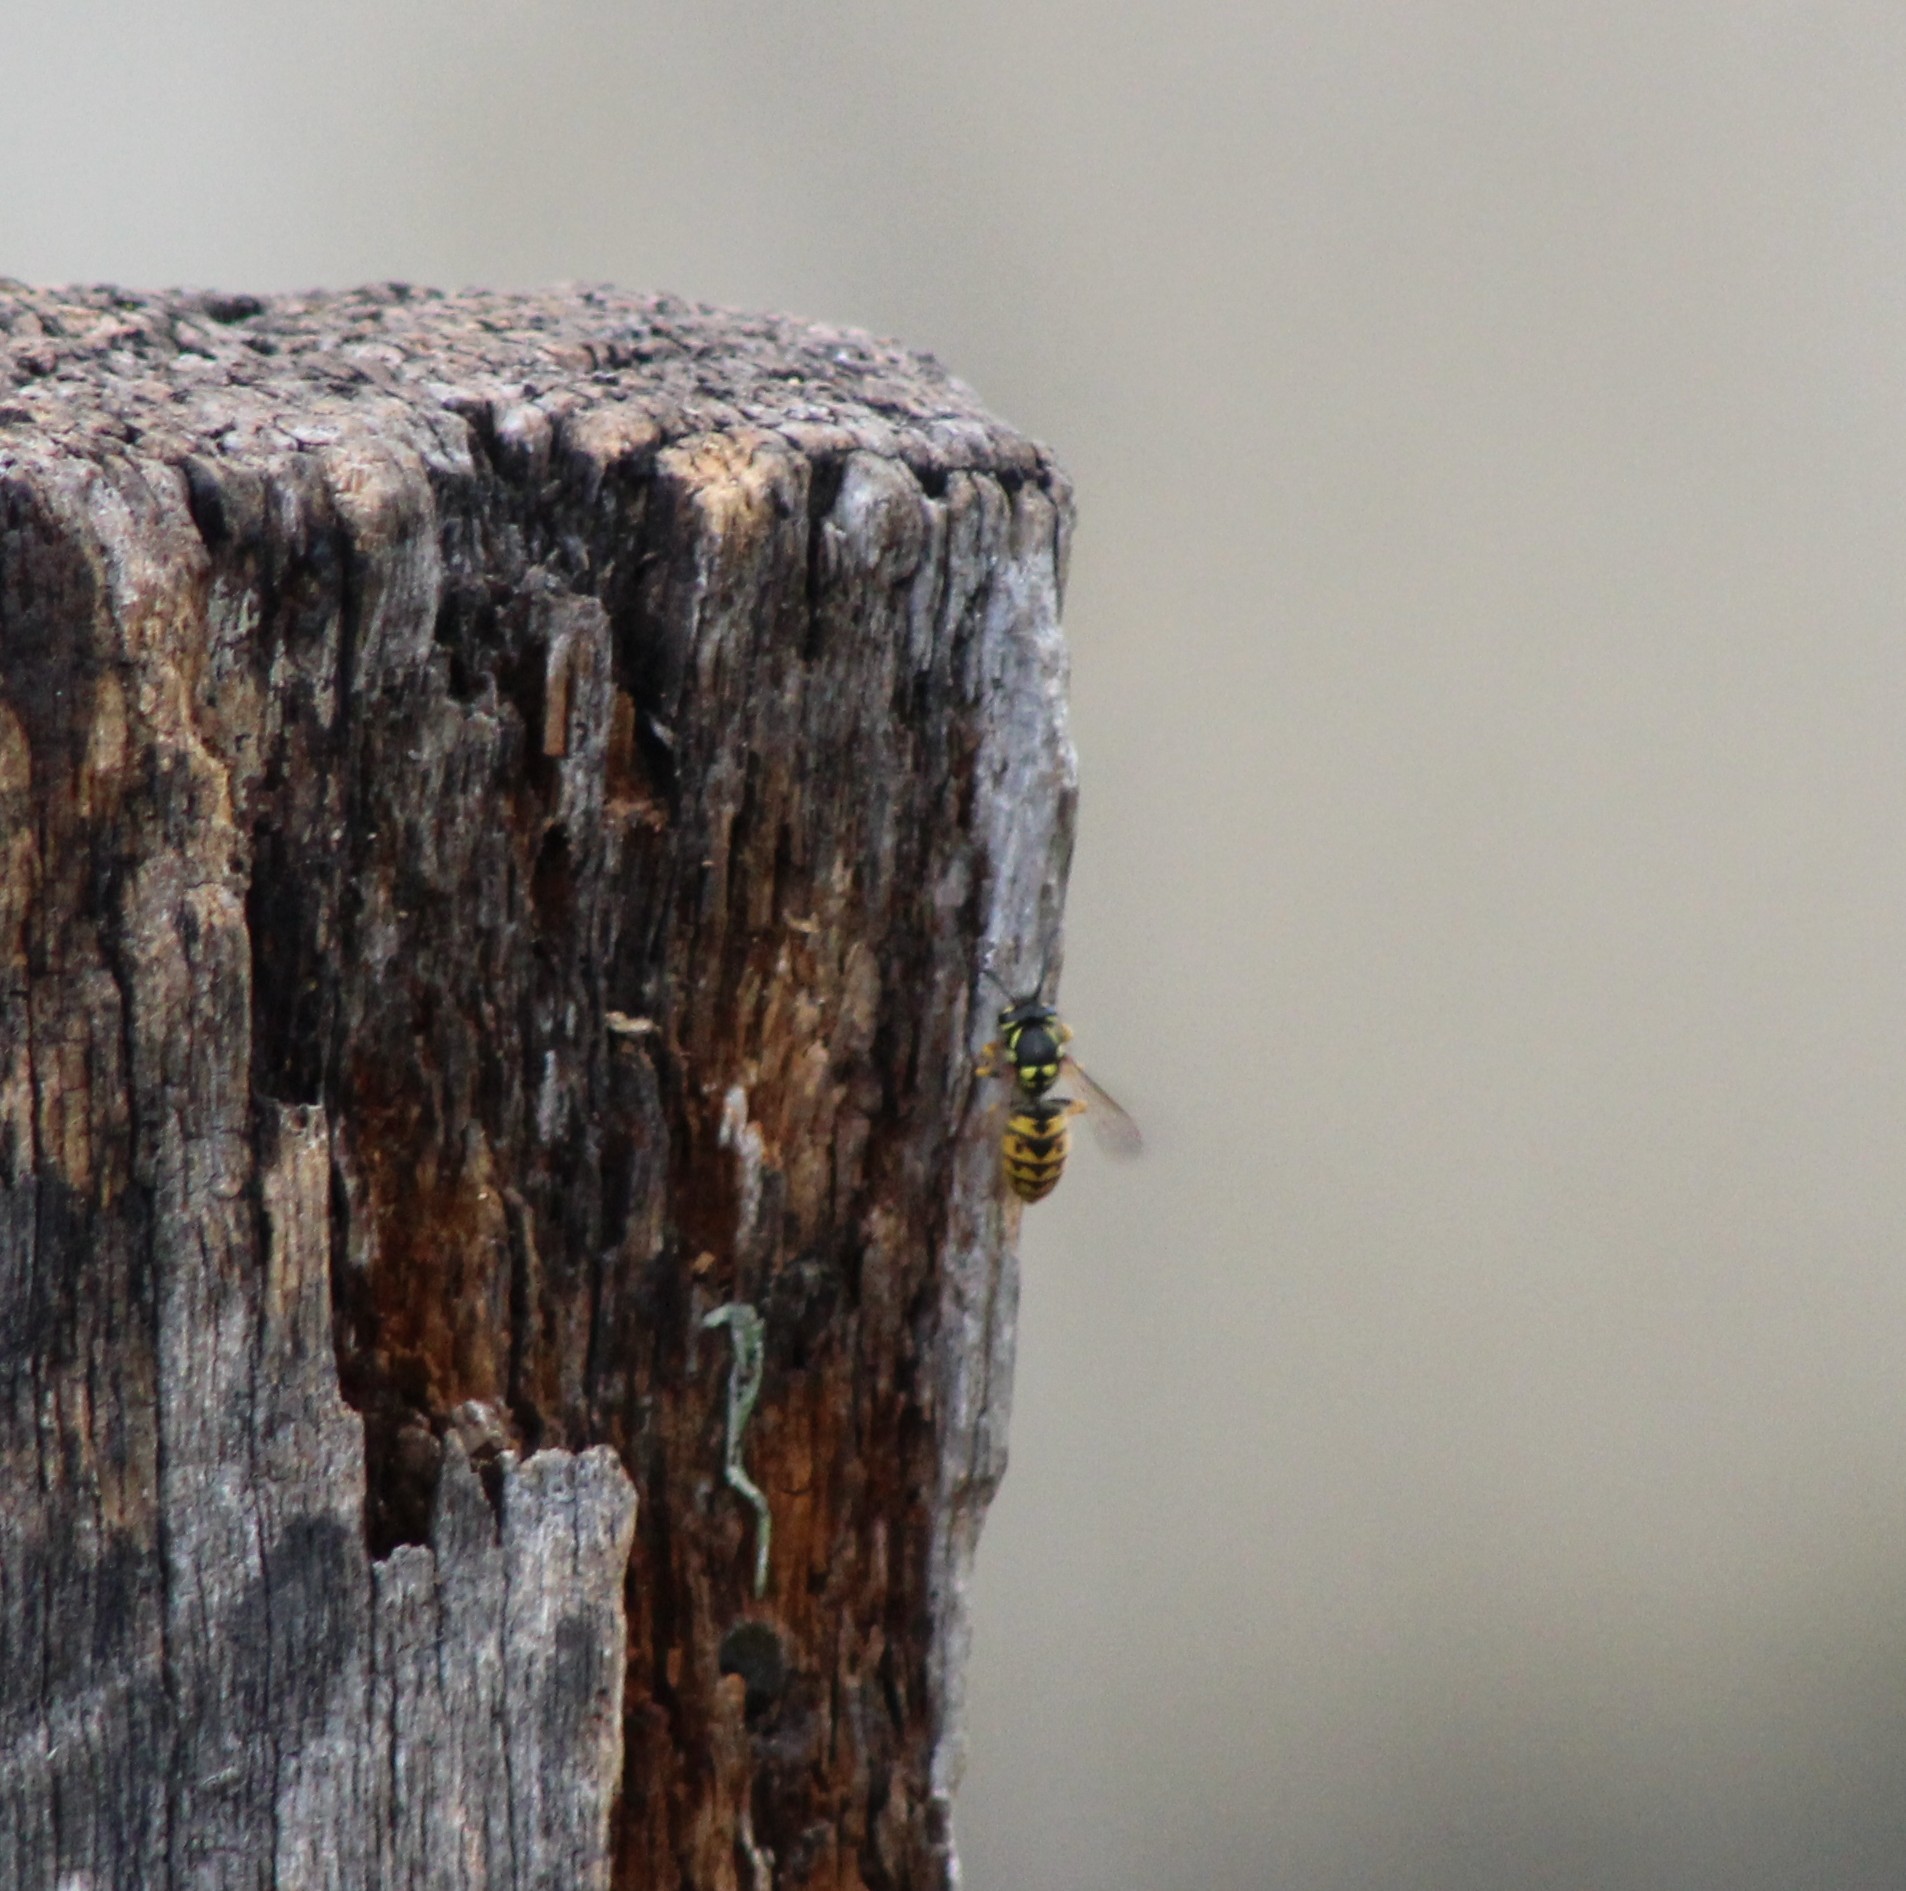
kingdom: Animalia
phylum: Arthropoda
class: Insecta
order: Hymenoptera
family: Vespidae
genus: Vespula
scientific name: Vespula germanica
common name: German wasp
